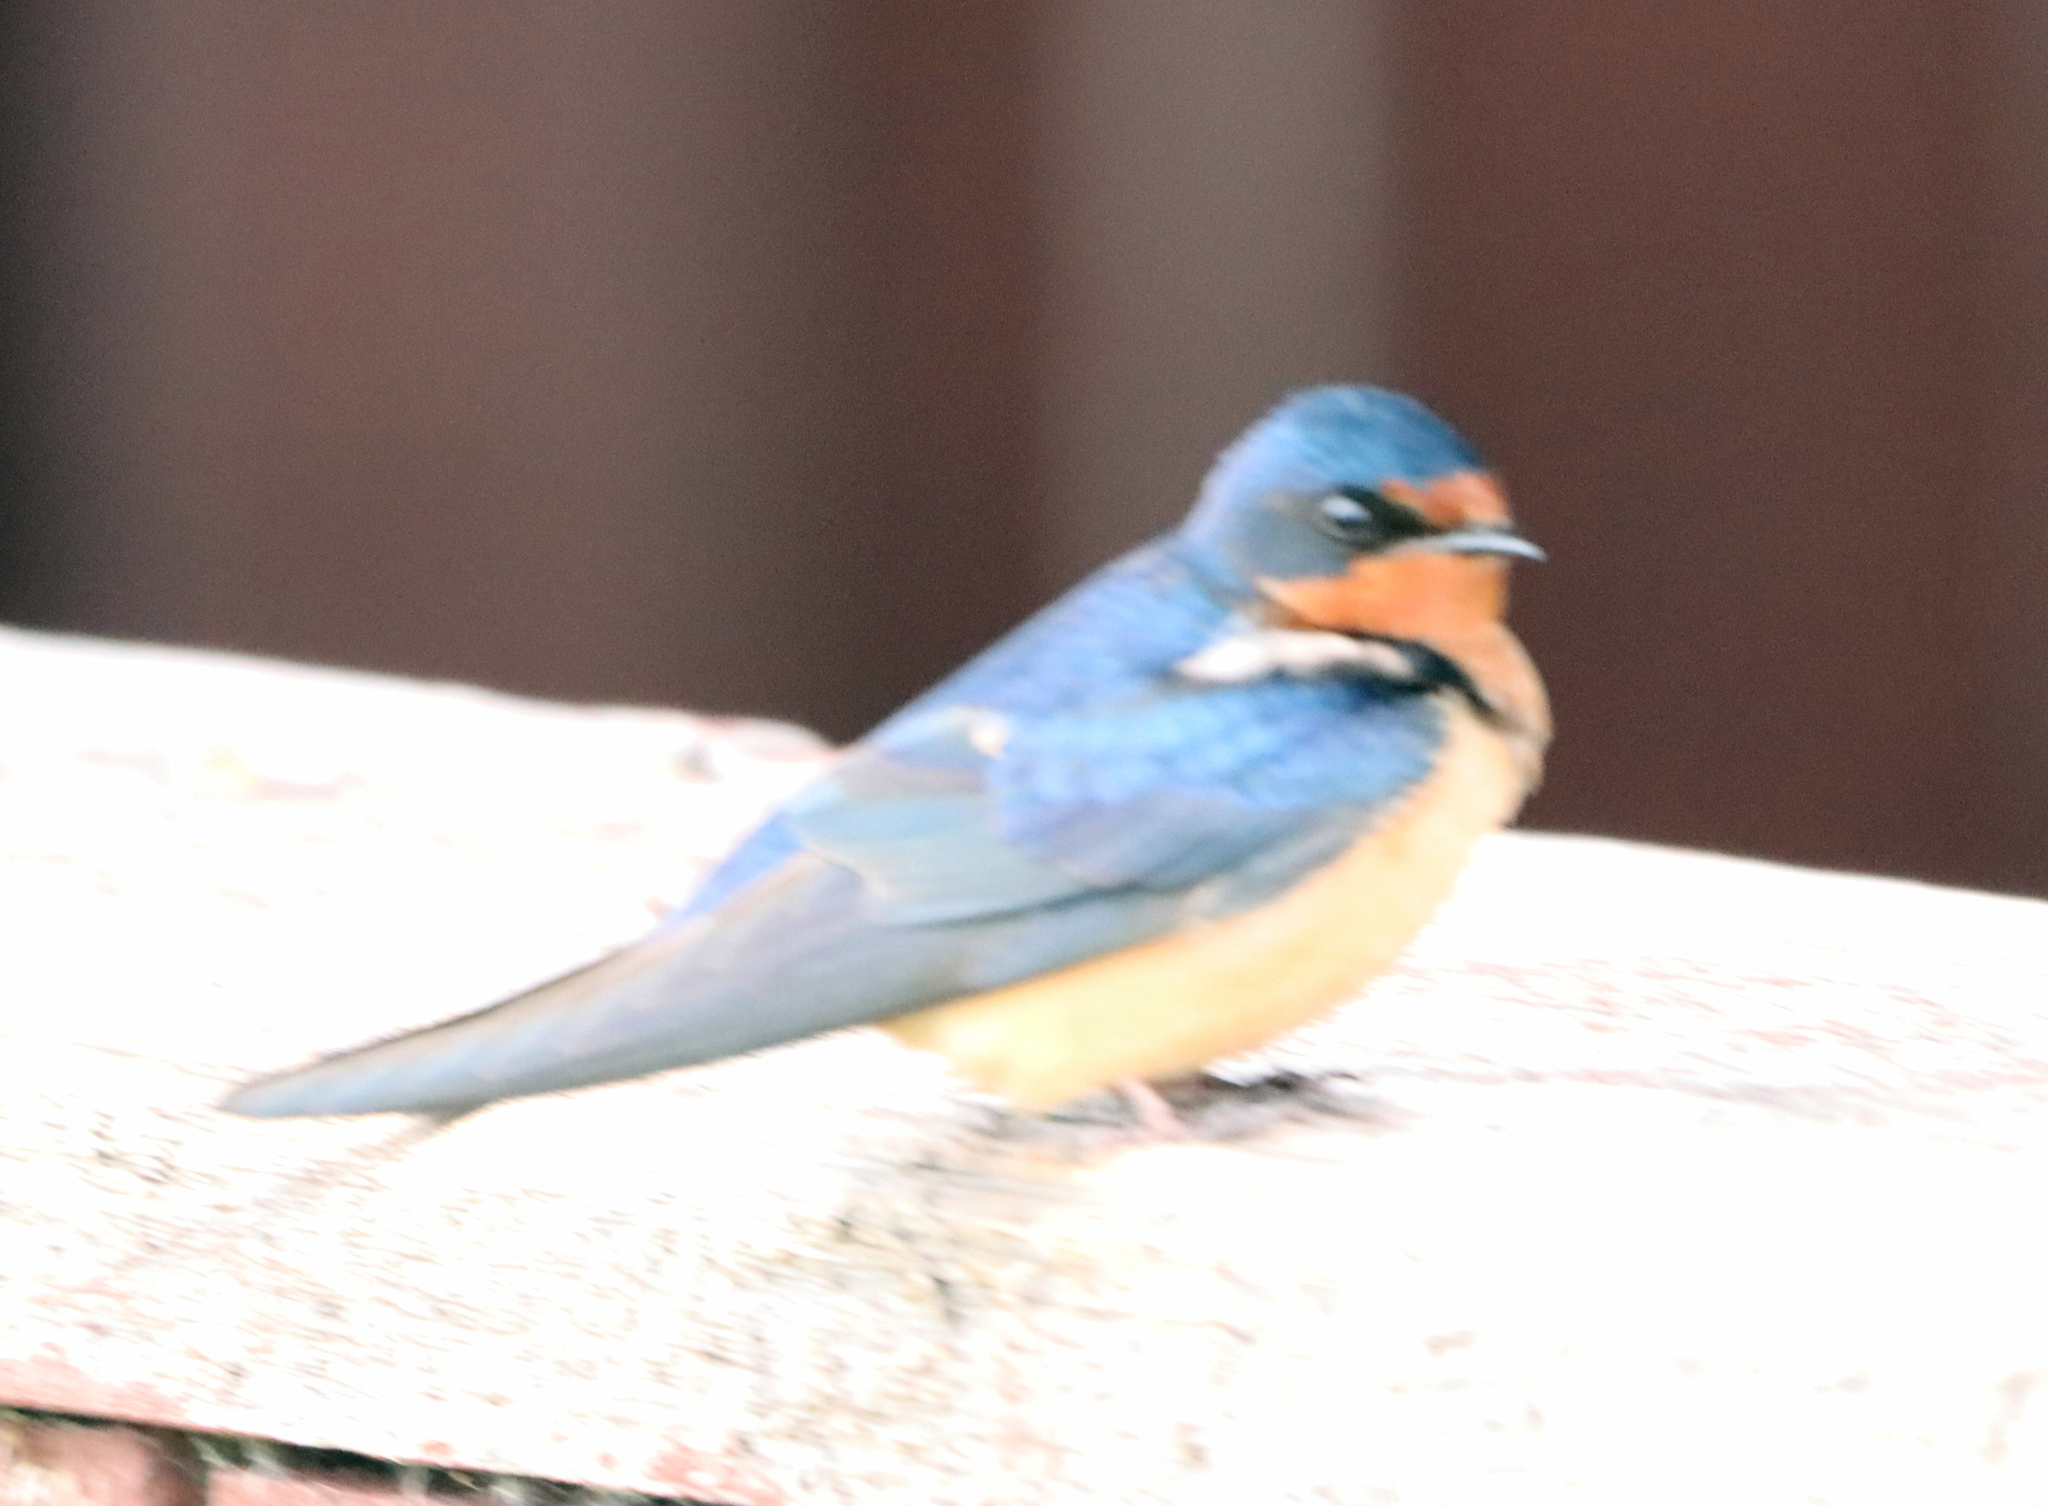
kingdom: Animalia
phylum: Chordata
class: Aves
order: Passeriformes
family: Hirundinidae
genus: Hirundo
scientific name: Hirundo rustica
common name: Barn swallow
